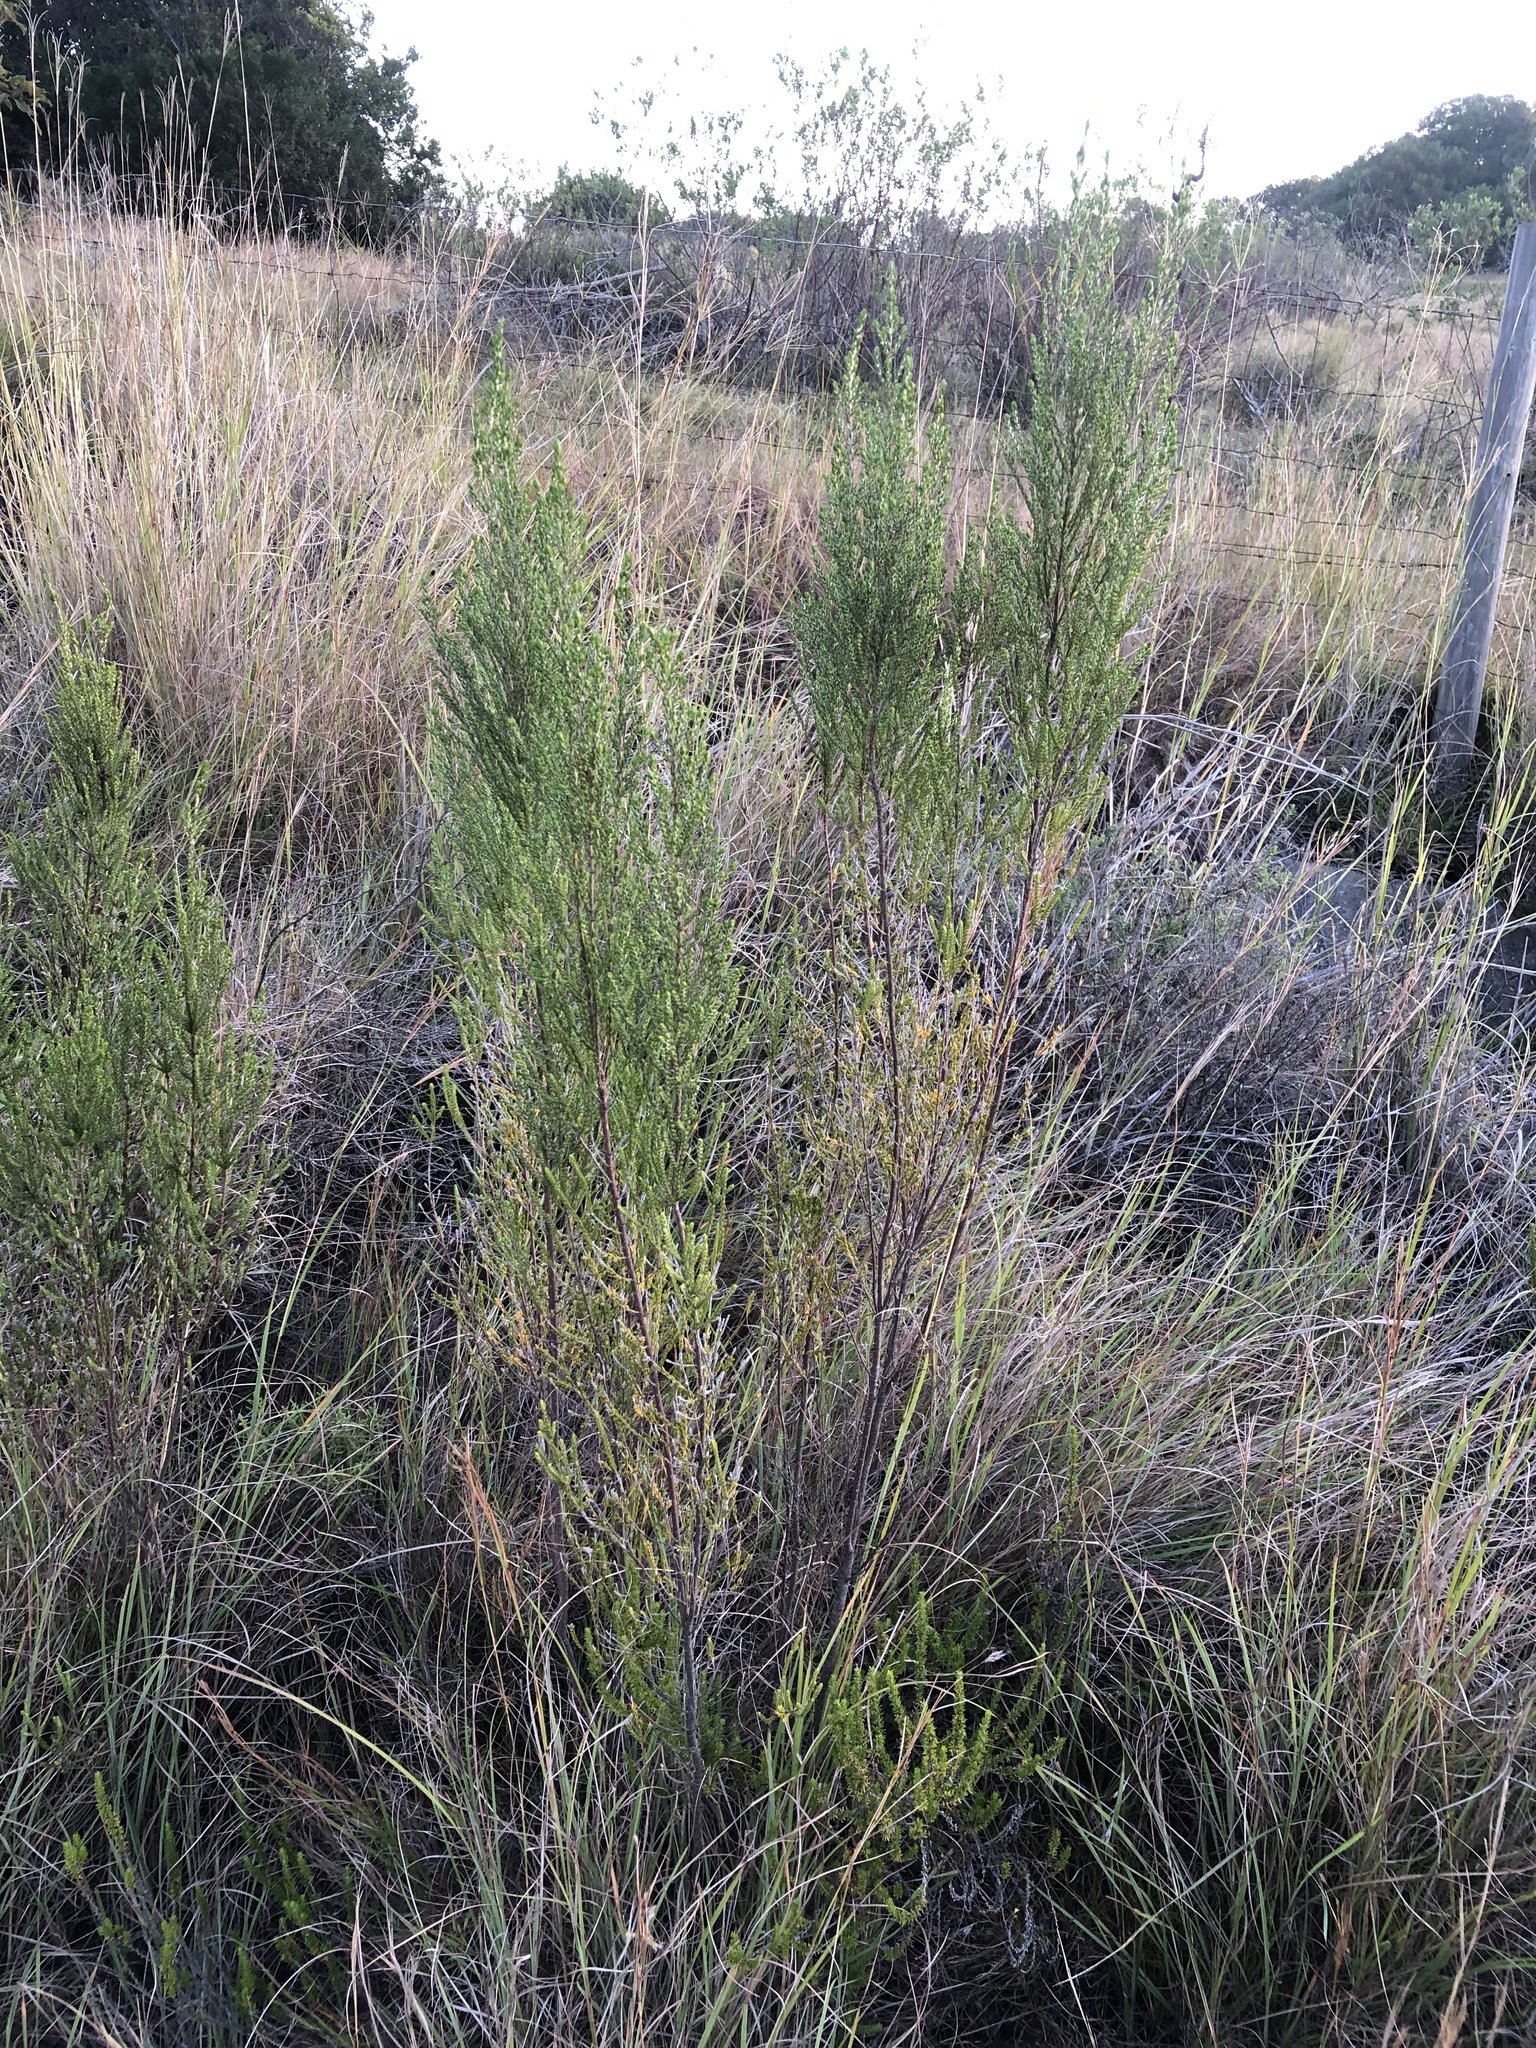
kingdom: Plantae
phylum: Tracheophyta
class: Magnoliopsida
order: Malvales
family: Thymelaeaceae
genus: Passerina
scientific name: Passerina rigida
